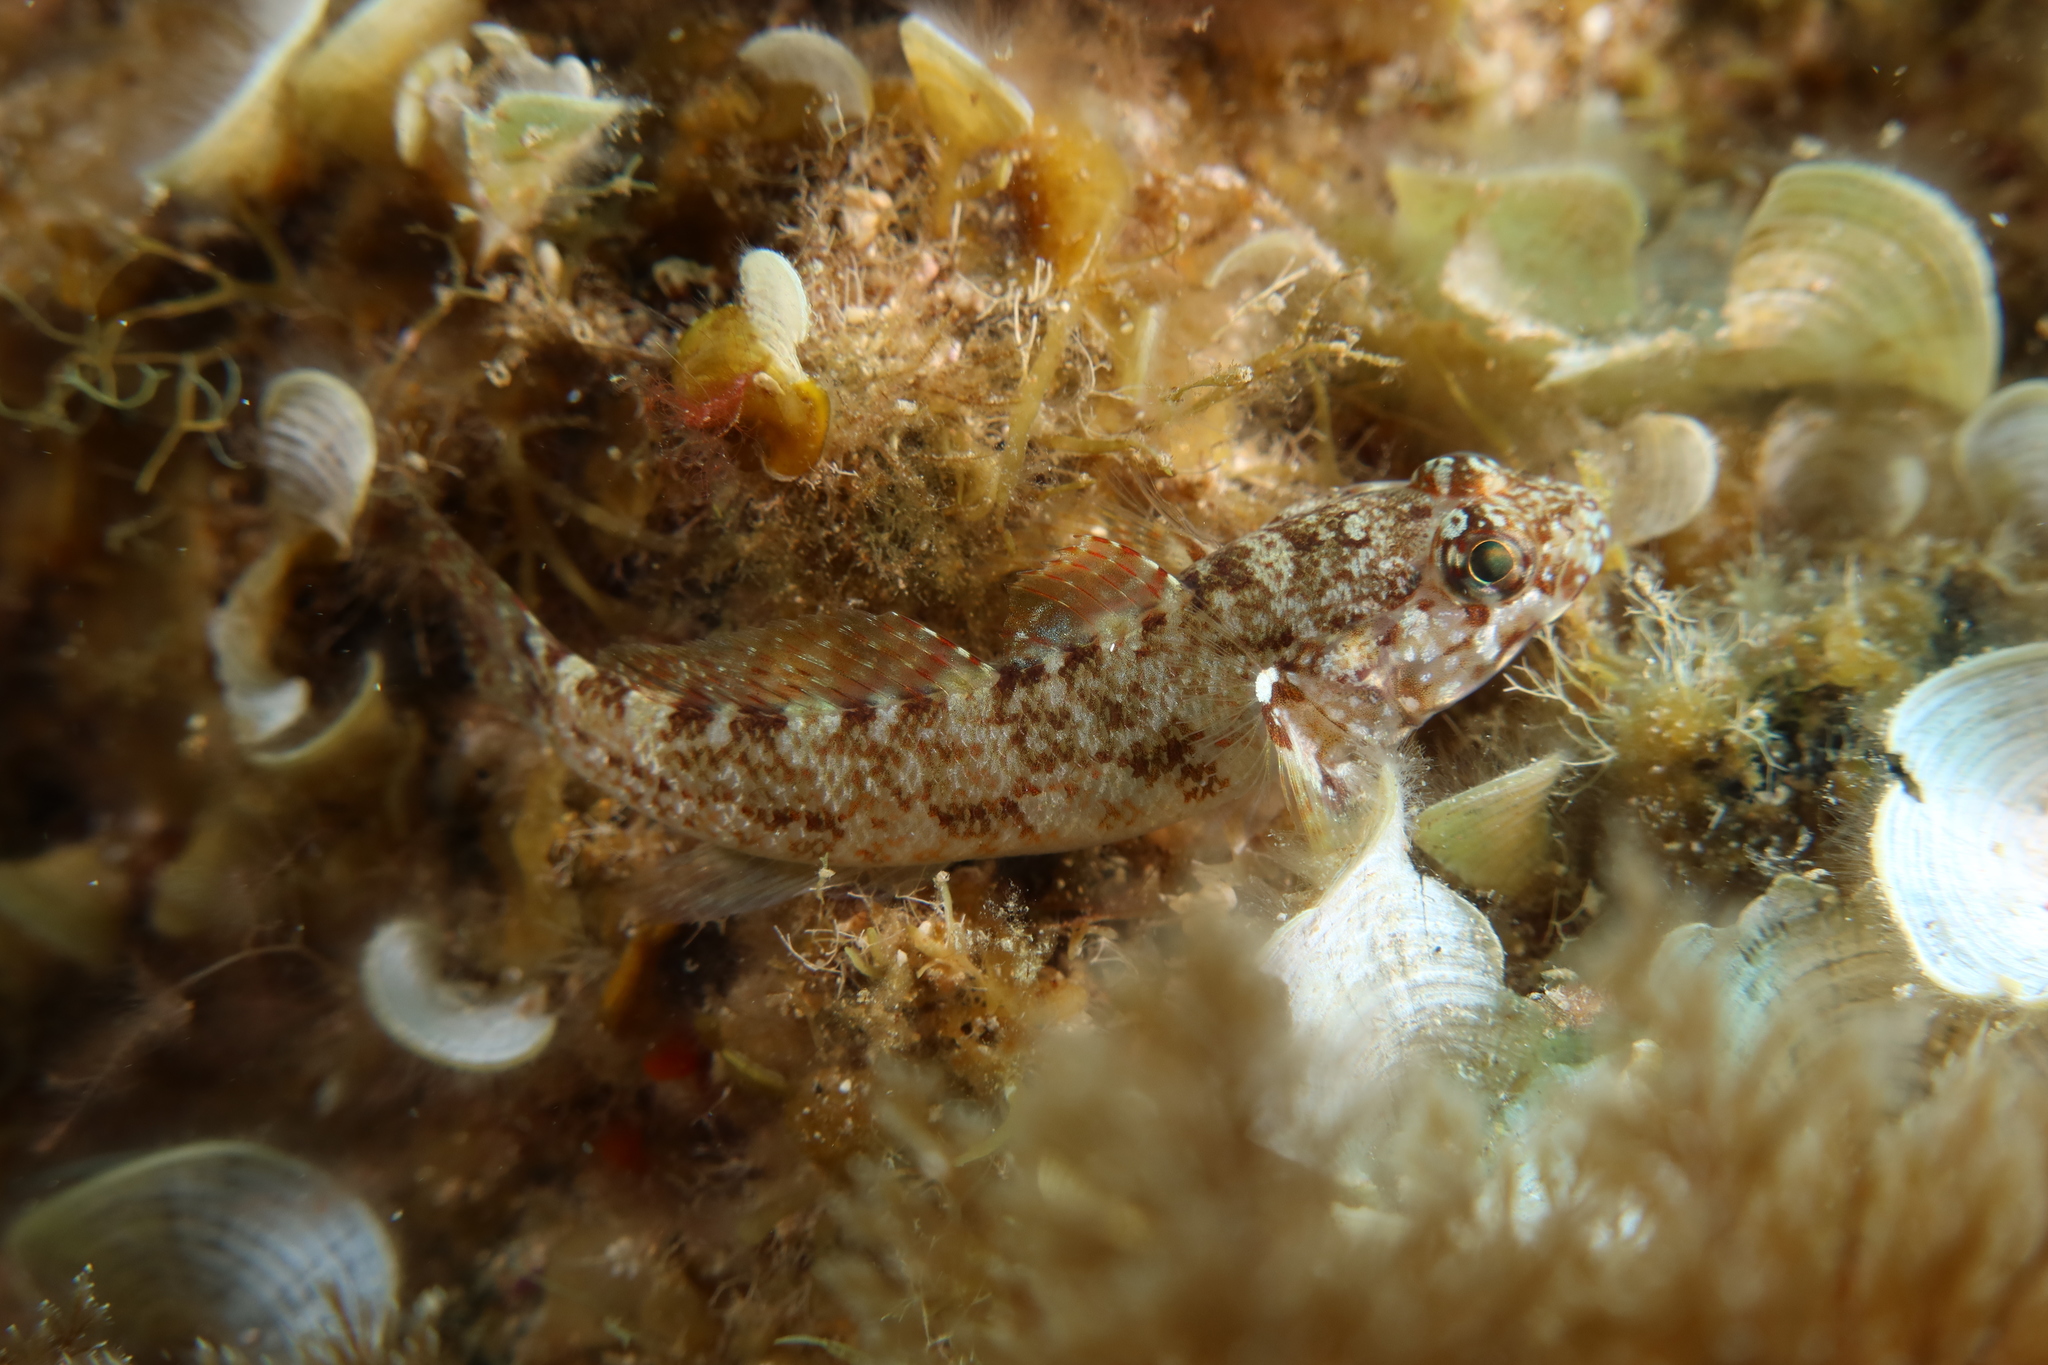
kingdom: Animalia
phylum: Chordata
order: Perciformes
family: Gobiidae
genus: Gobius
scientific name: Gobius paganellus
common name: Rock goby
